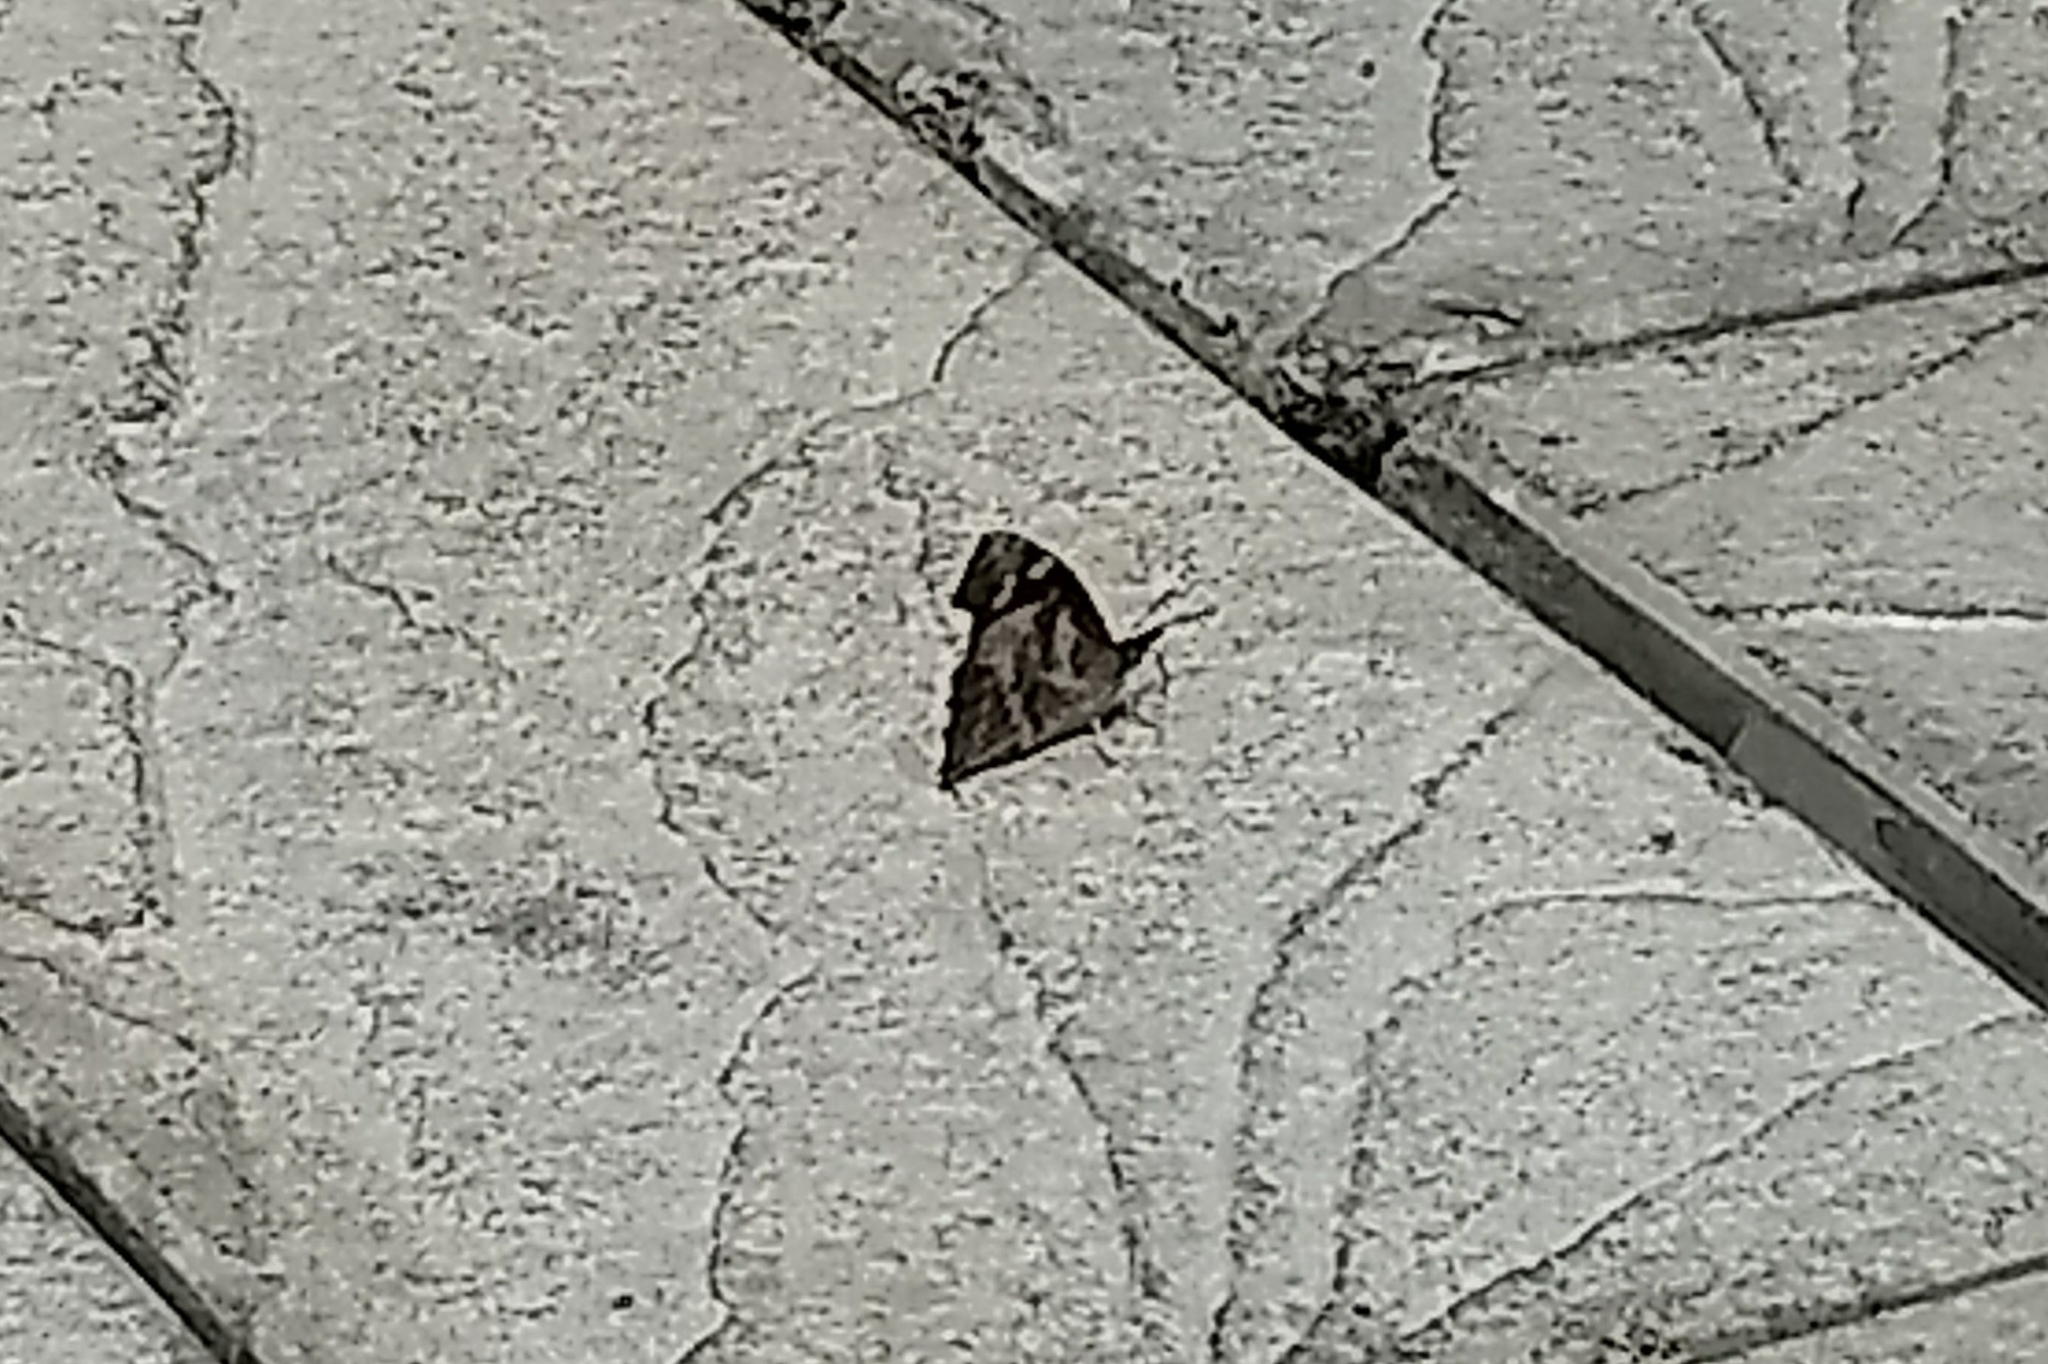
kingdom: Animalia
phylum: Arthropoda
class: Insecta
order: Lepidoptera
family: Nymphalidae
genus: Libythea
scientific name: Libythea myrrha
